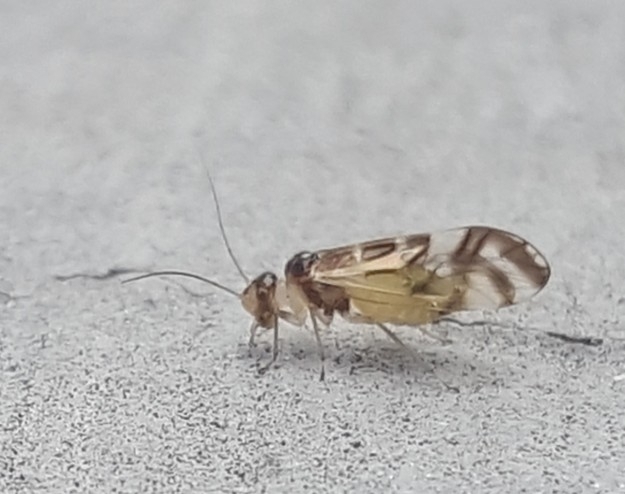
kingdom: Animalia
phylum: Arthropoda
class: Insecta
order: Psocodea
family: Stenopsocidae
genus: Graphopsocus
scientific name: Graphopsocus cruciatus
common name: Lizard bark louse
